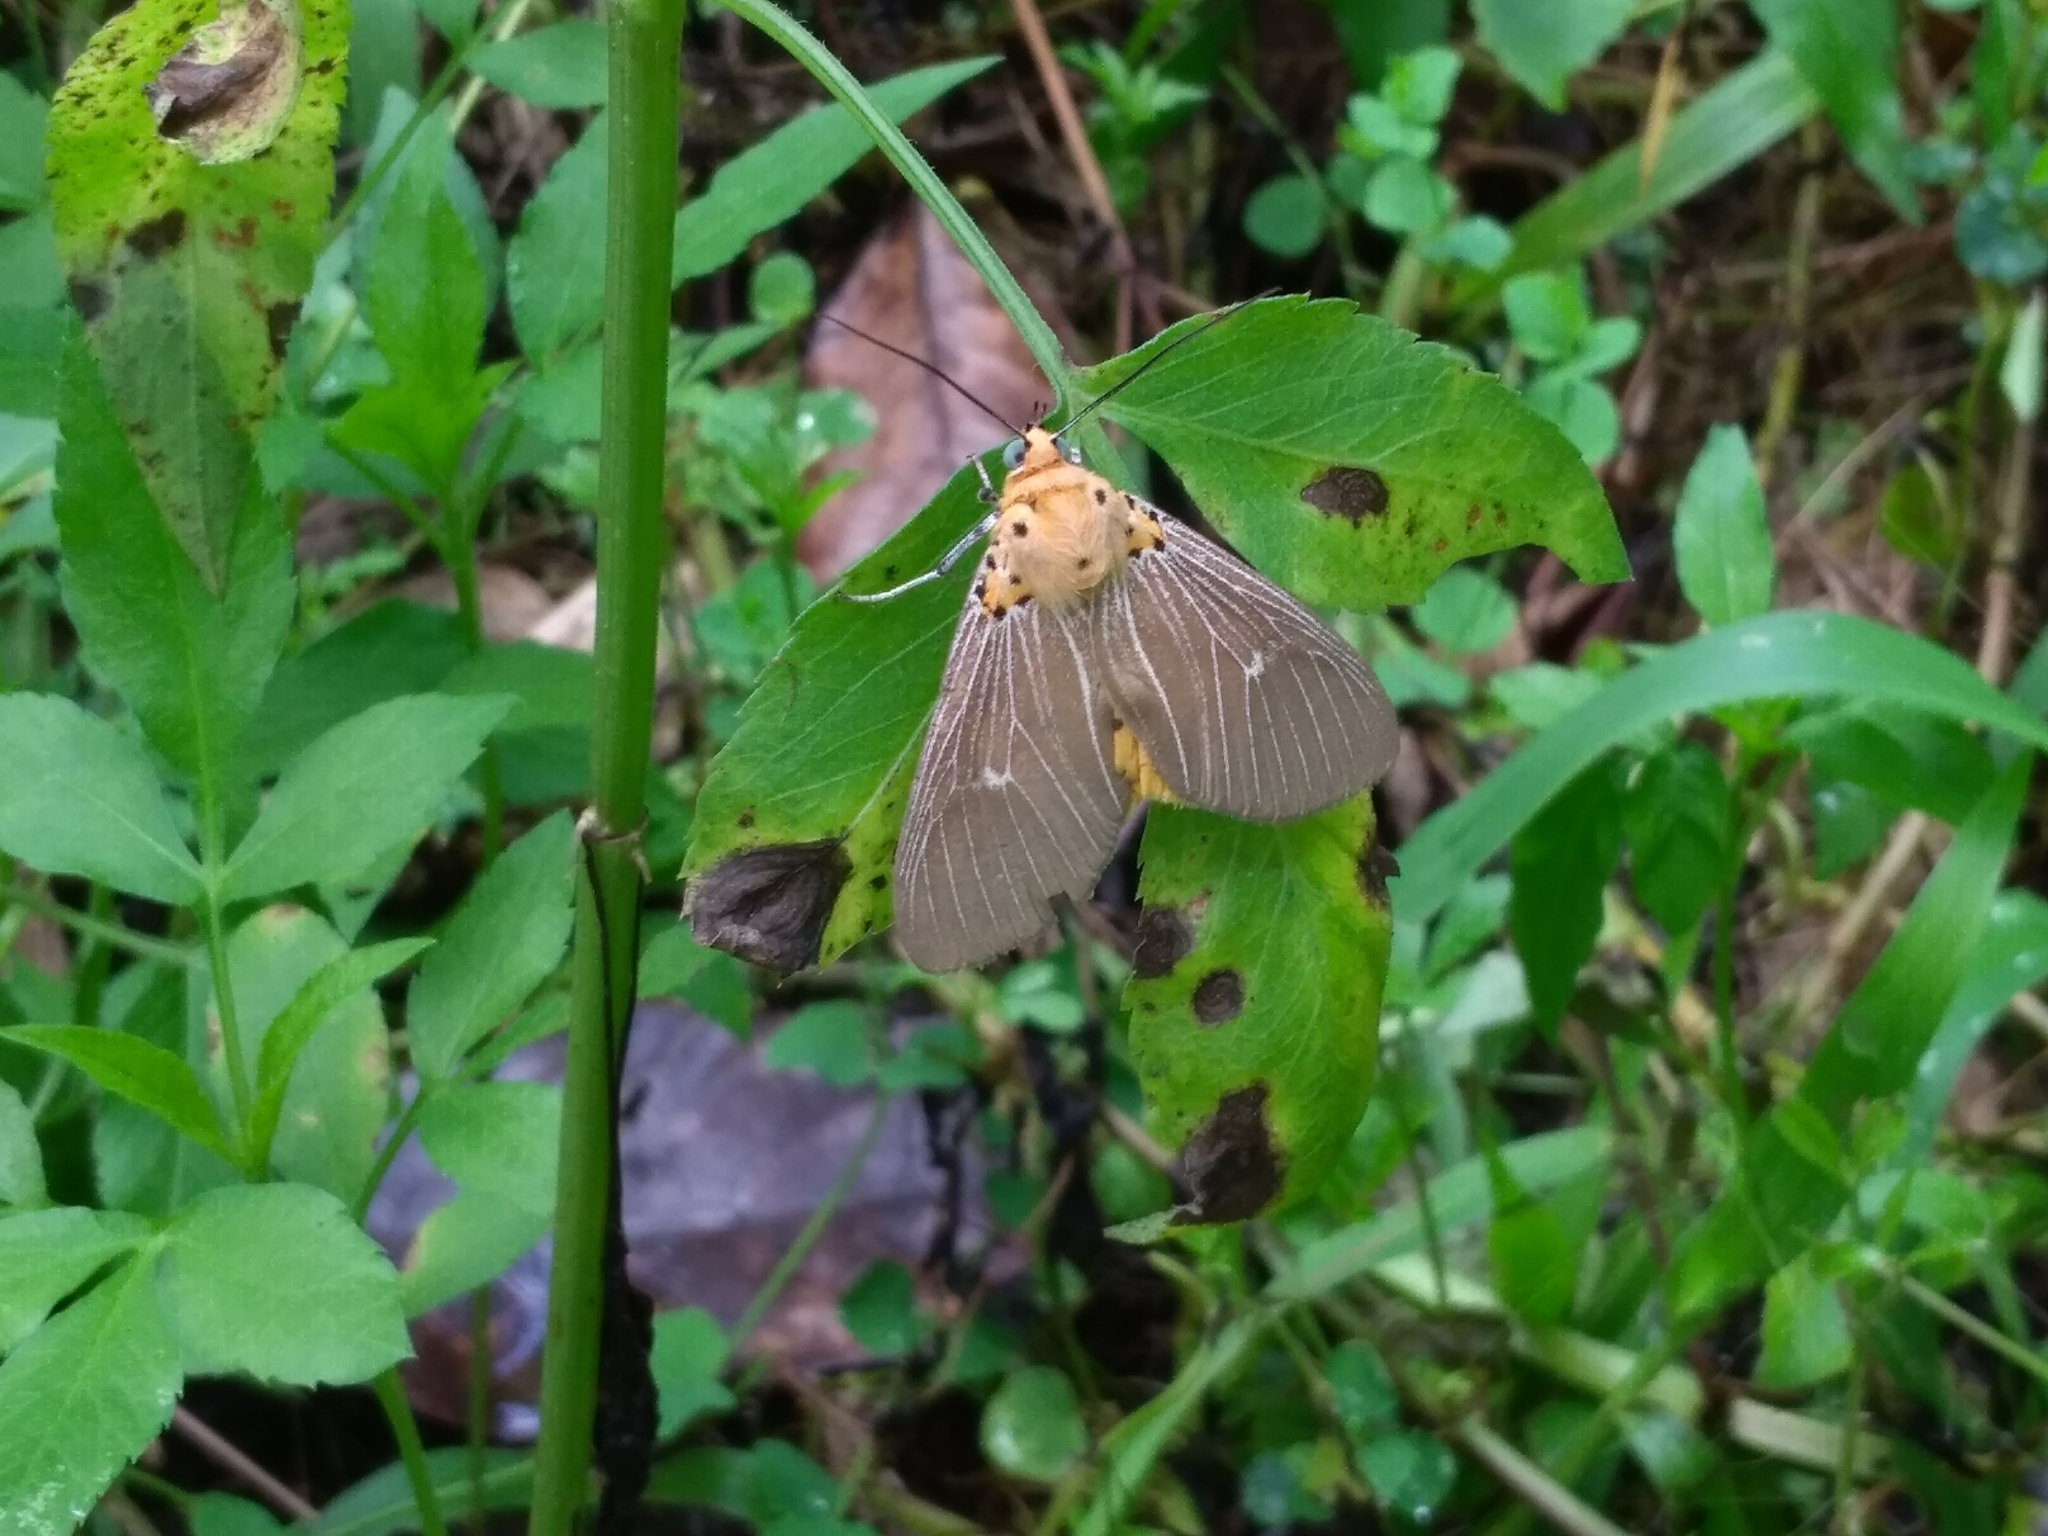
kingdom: Animalia
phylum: Arthropoda
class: Insecta
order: Lepidoptera
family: Erebidae
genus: Asota
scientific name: Asota caricae
